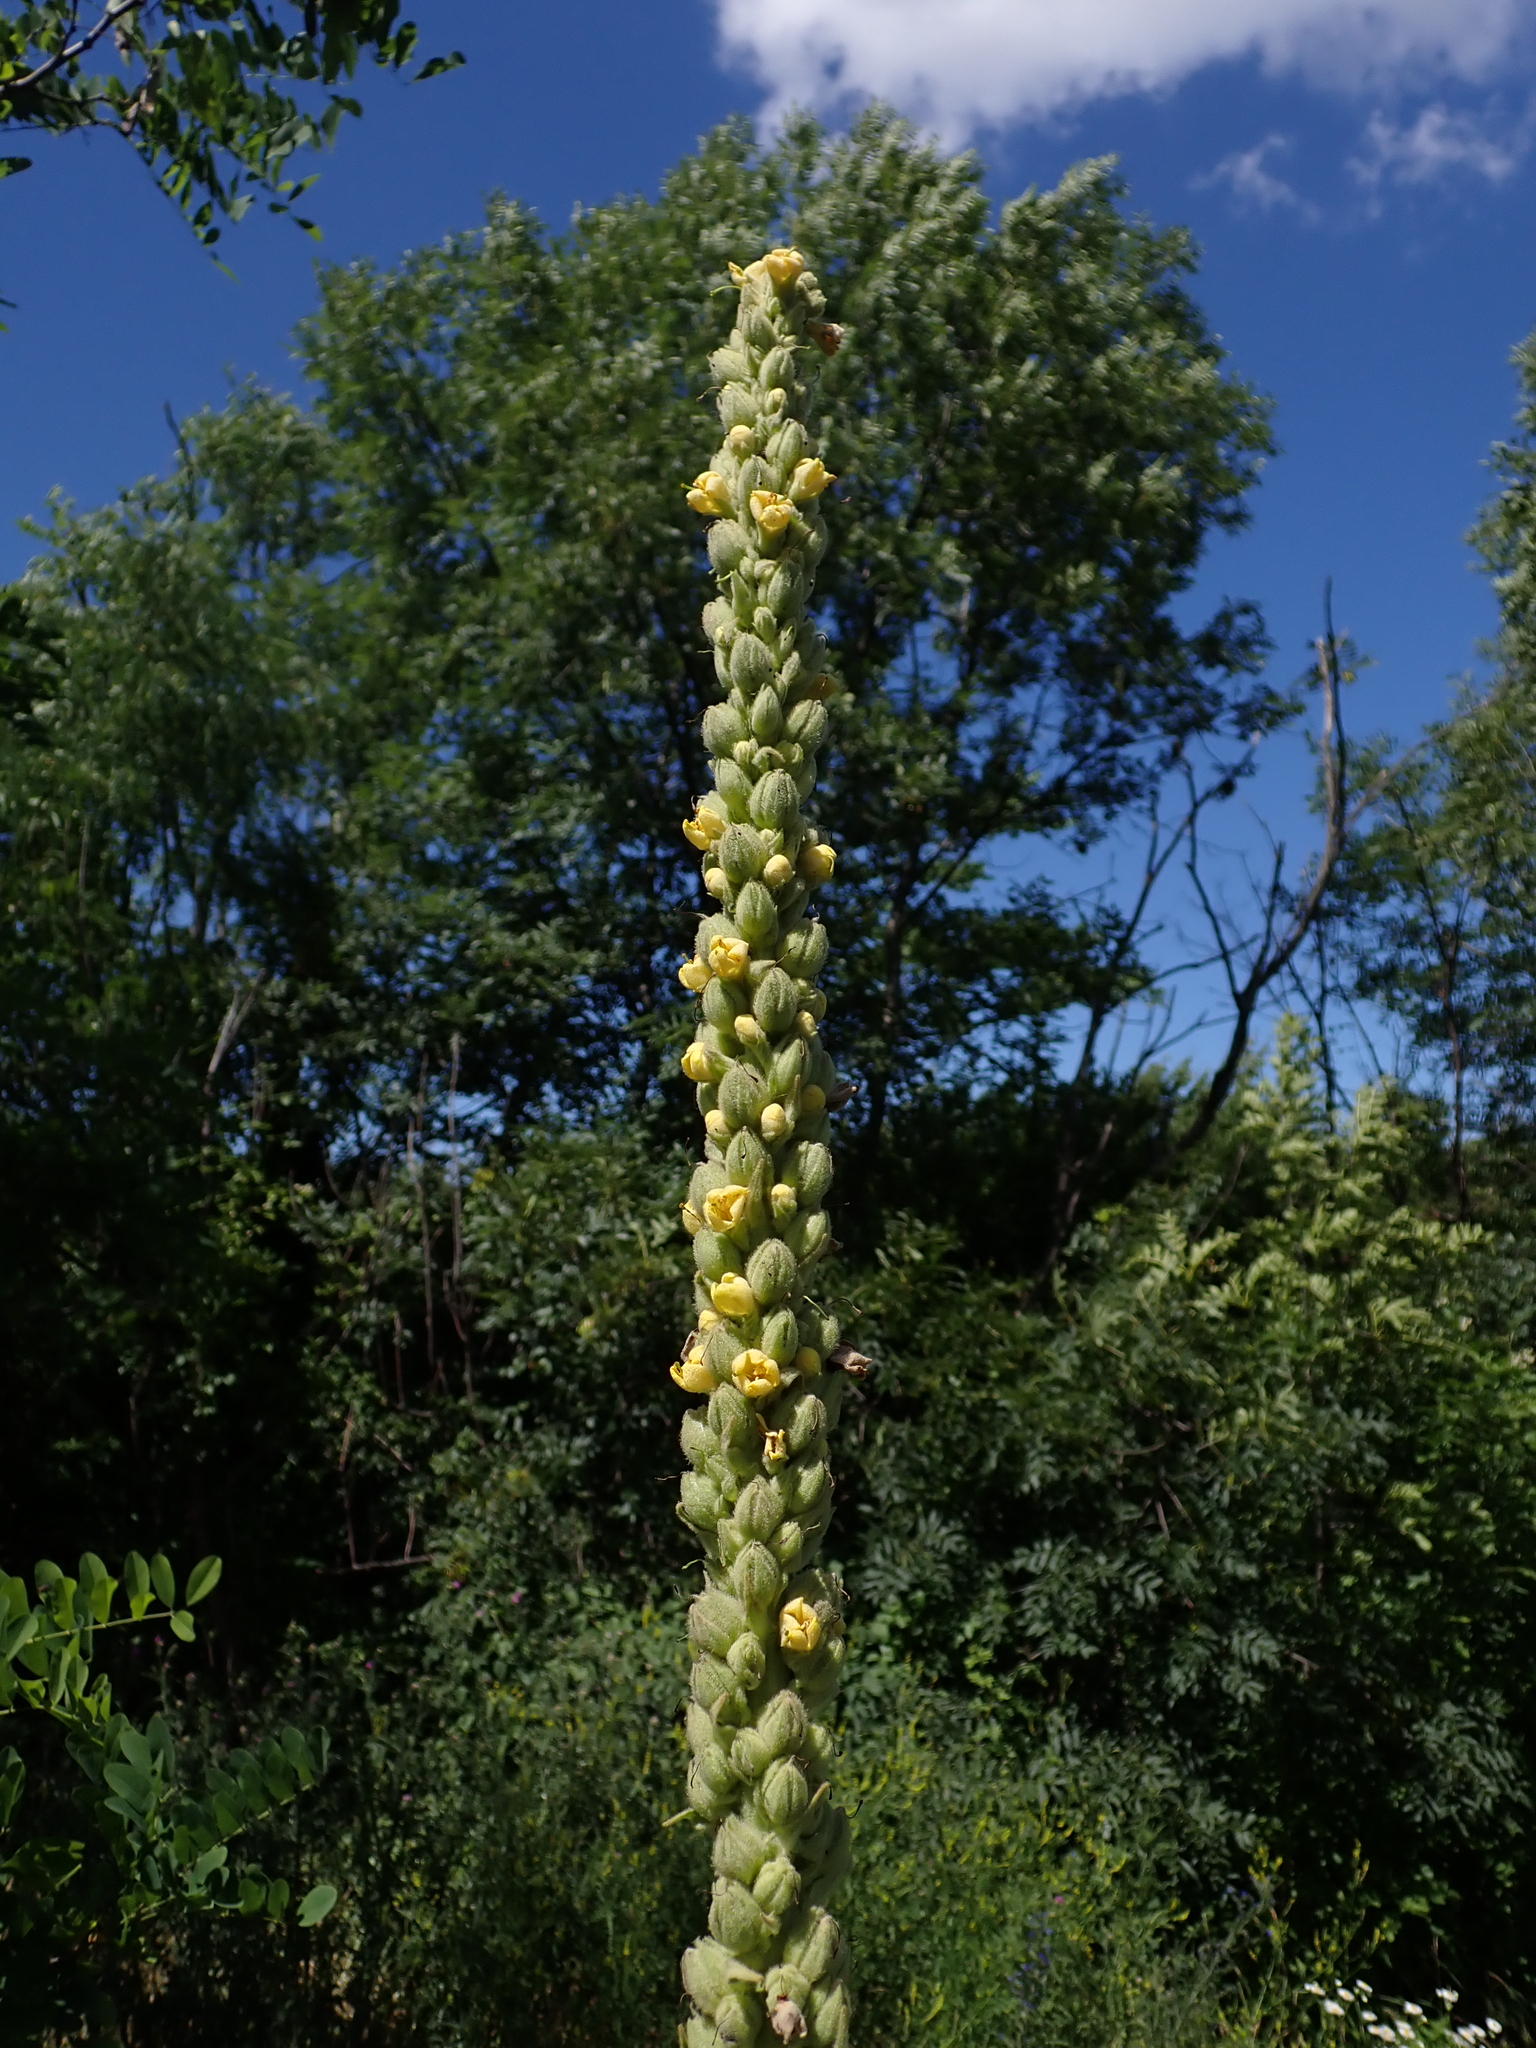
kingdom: Plantae
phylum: Tracheophyta
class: Magnoliopsida
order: Lamiales
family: Scrophulariaceae
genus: Verbascum
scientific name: Verbascum thapsus
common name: Common mullein
